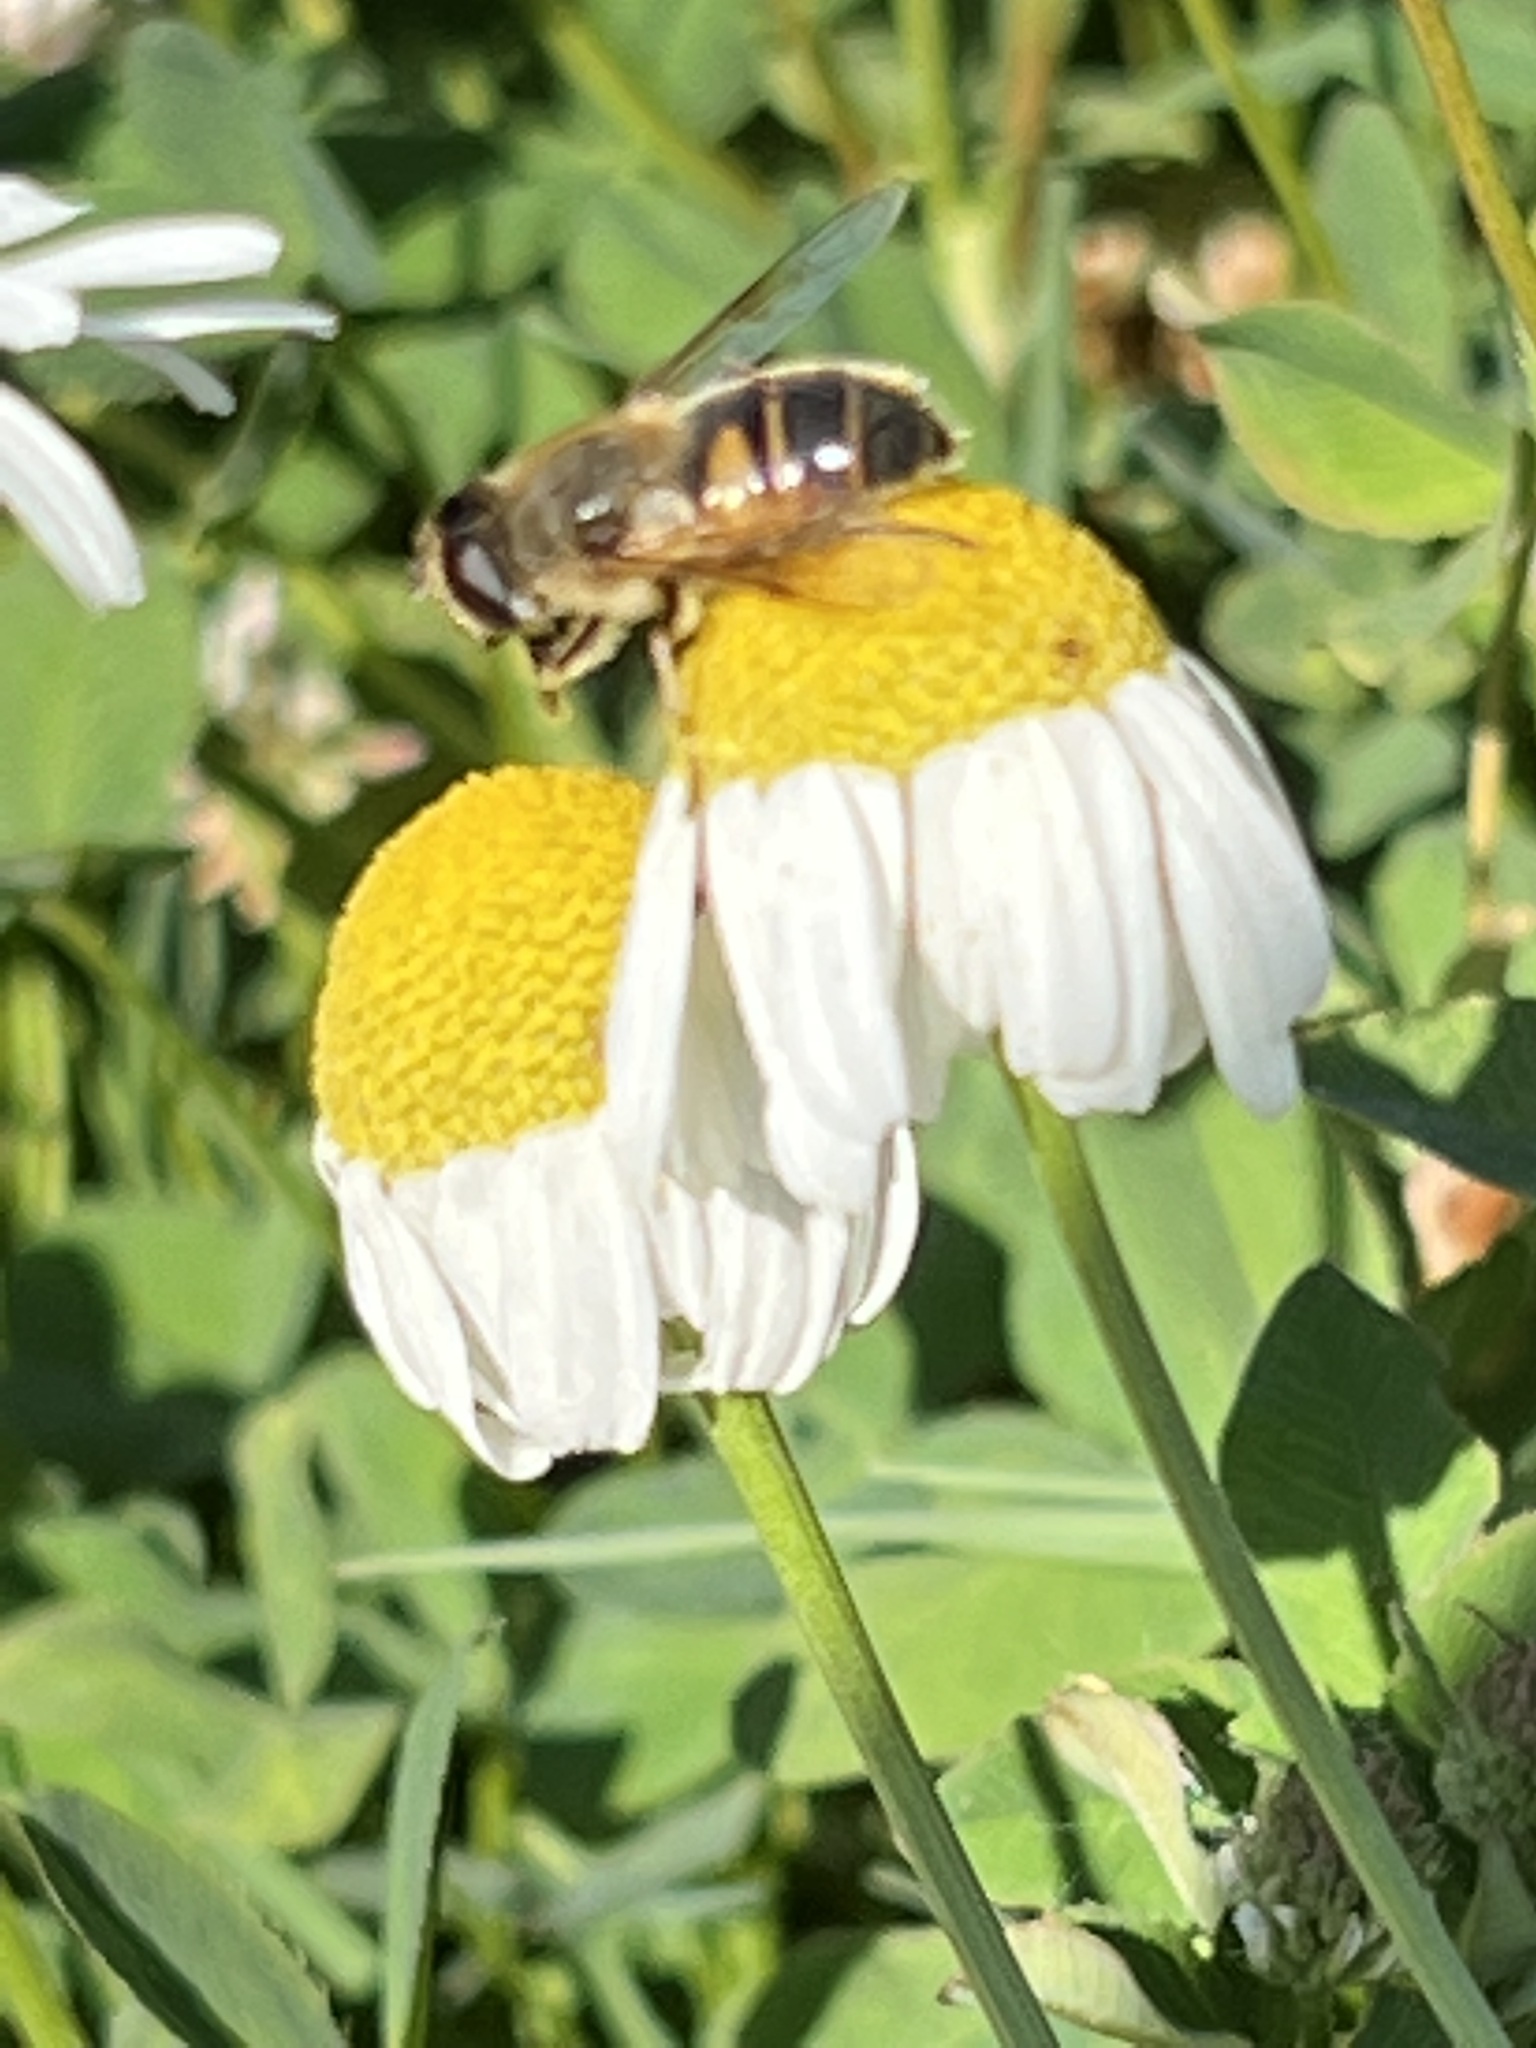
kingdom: Animalia
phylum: Arthropoda
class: Insecta
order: Diptera
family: Syrphidae
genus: Eristalis
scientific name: Eristalis tenax
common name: Drone fly
